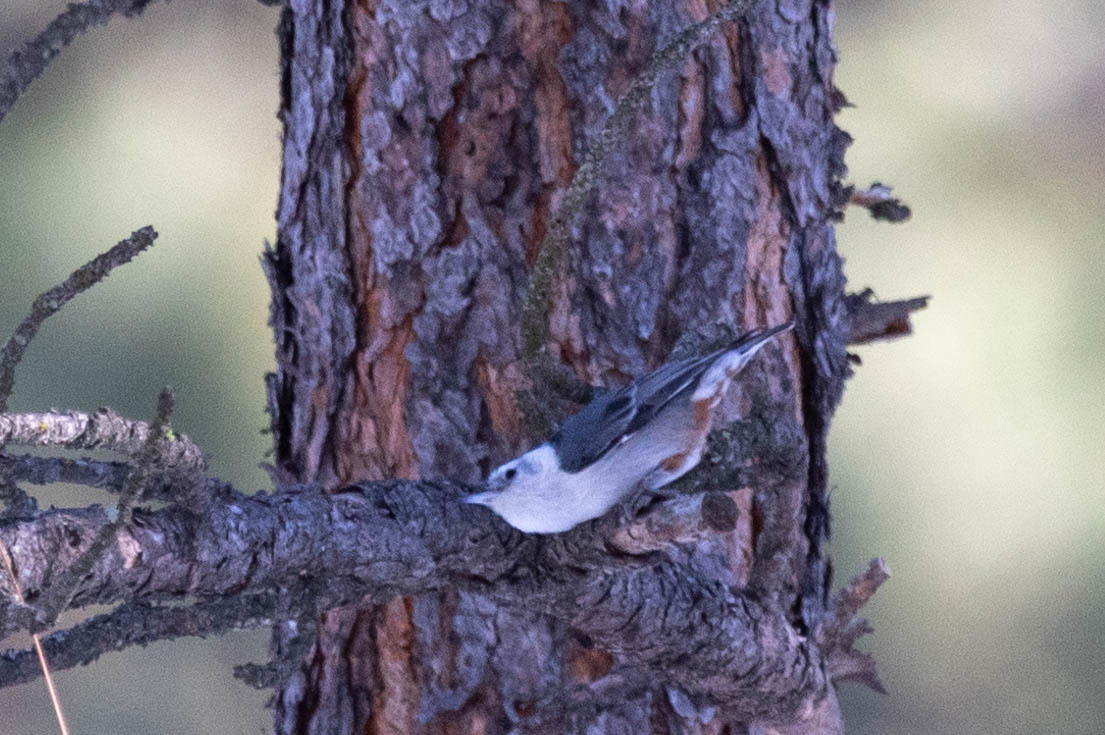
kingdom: Animalia
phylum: Chordata
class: Aves
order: Passeriformes
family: Sittidae
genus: Sitta
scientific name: Sitta carolinensis
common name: White-breasted nuthatch
